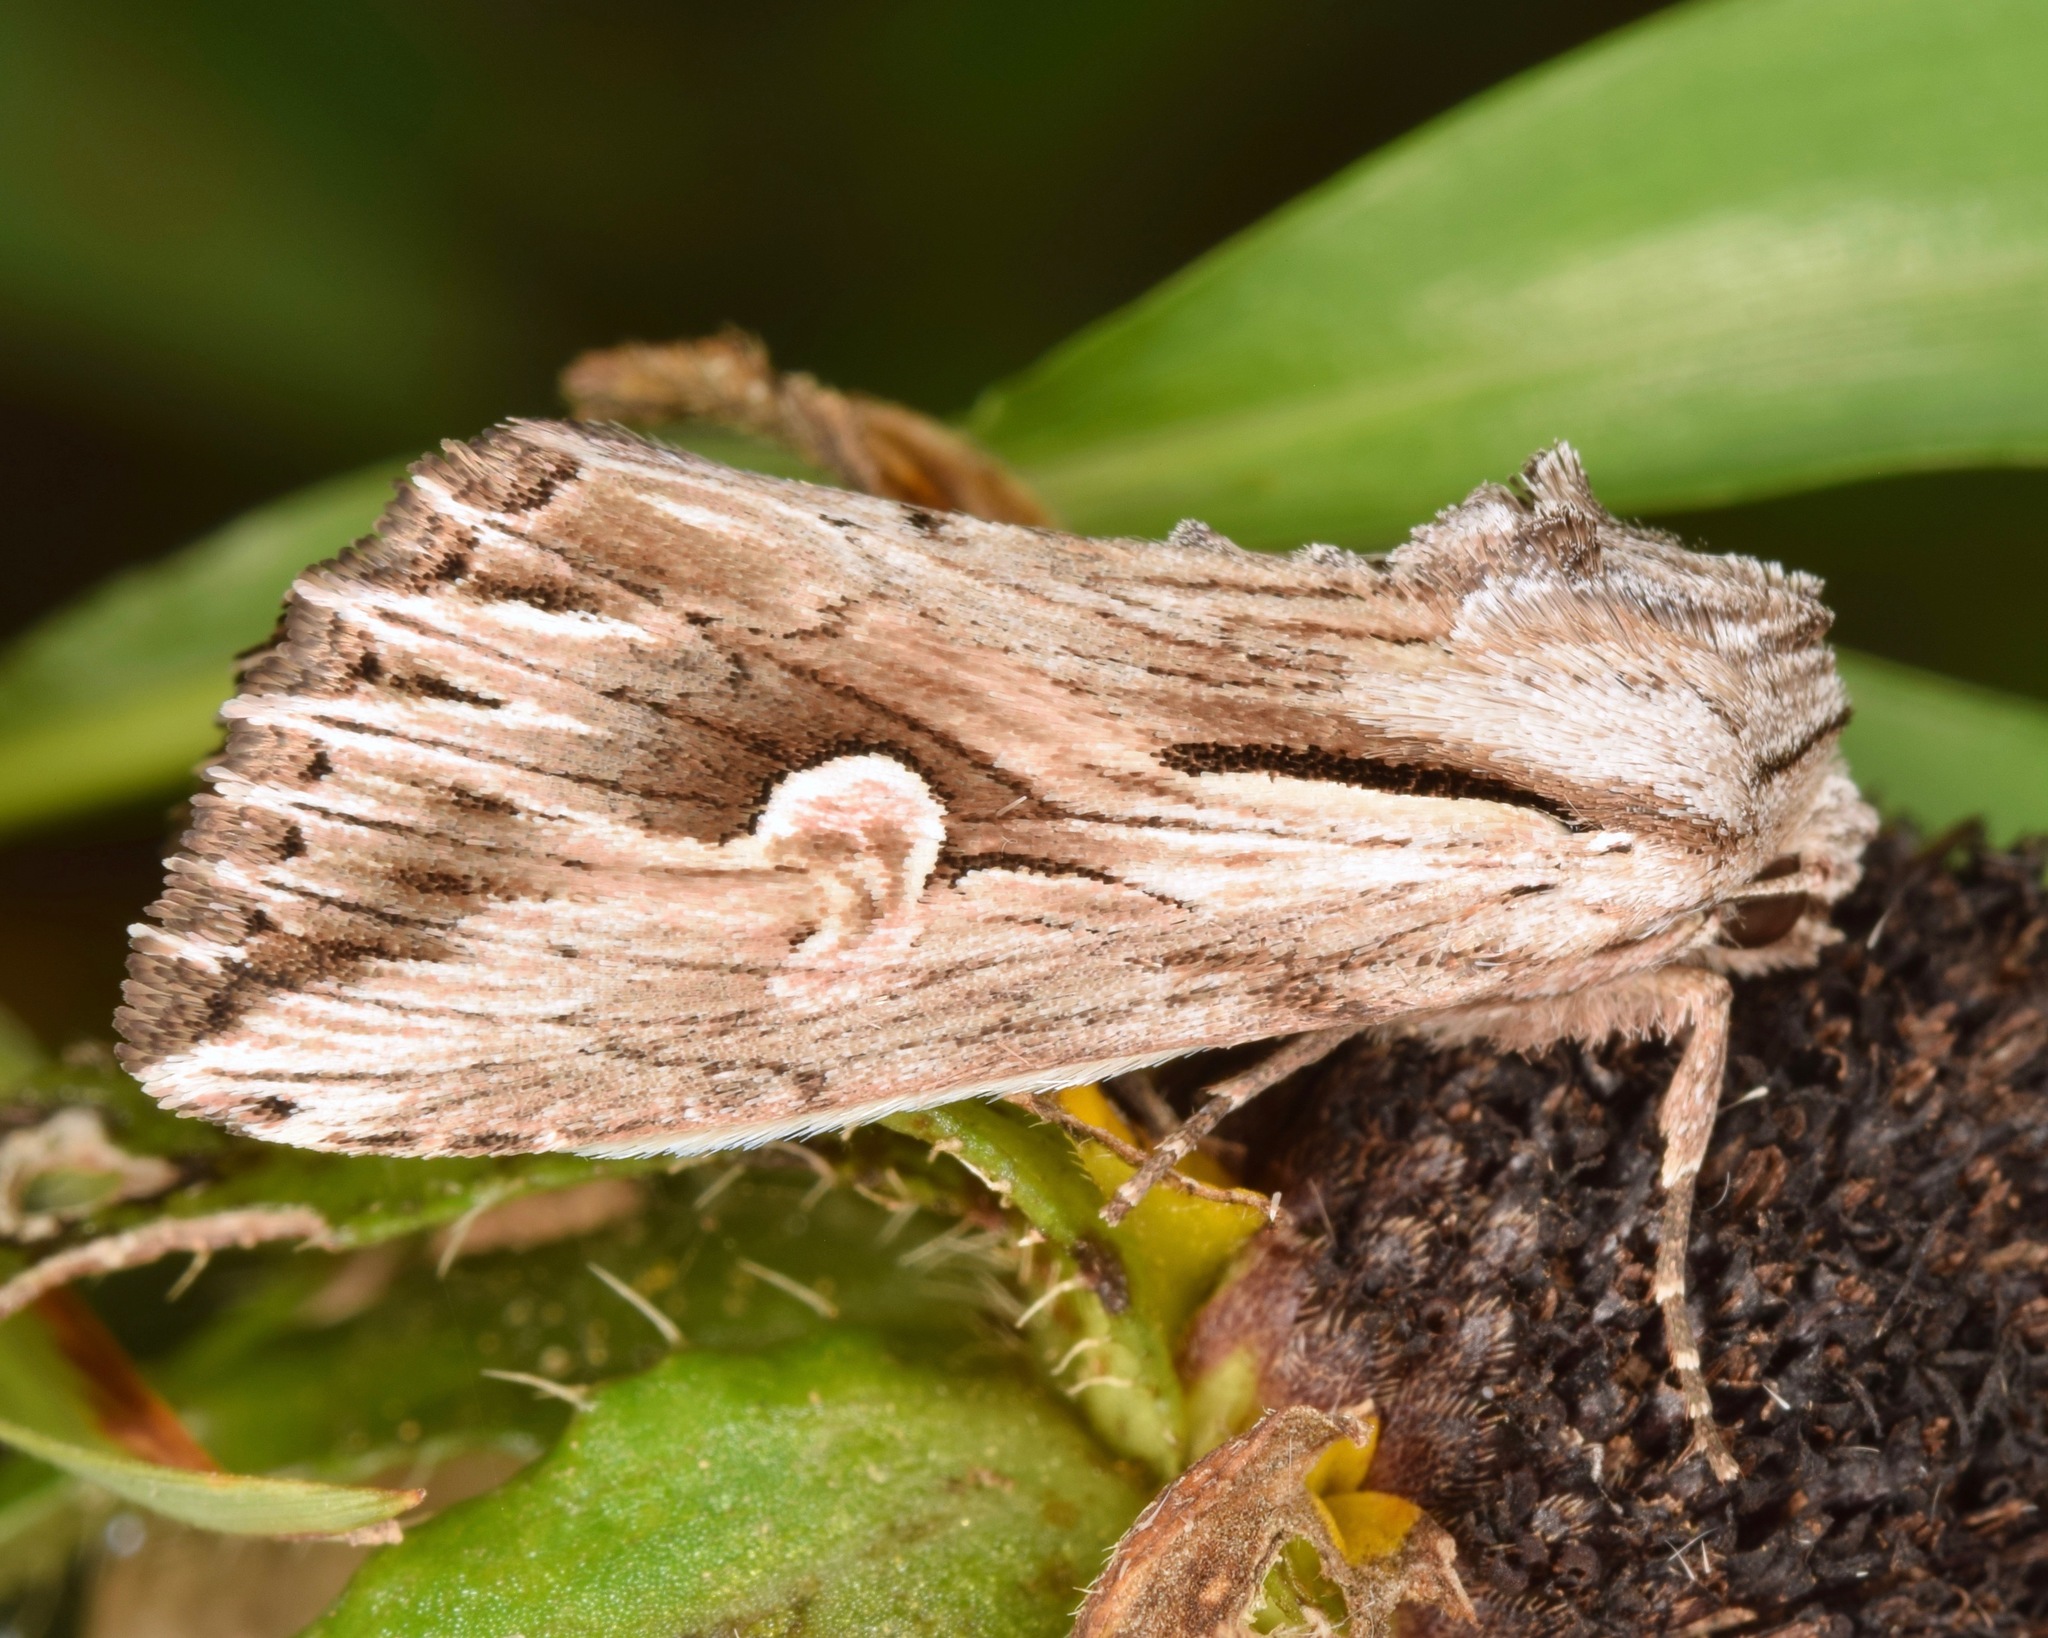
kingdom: Animalia
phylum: Arthropoda
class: Insecta
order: Lepidoptera
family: Noctuidae
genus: Nedra
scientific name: Nedra ramosula
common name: Gray half-spot
